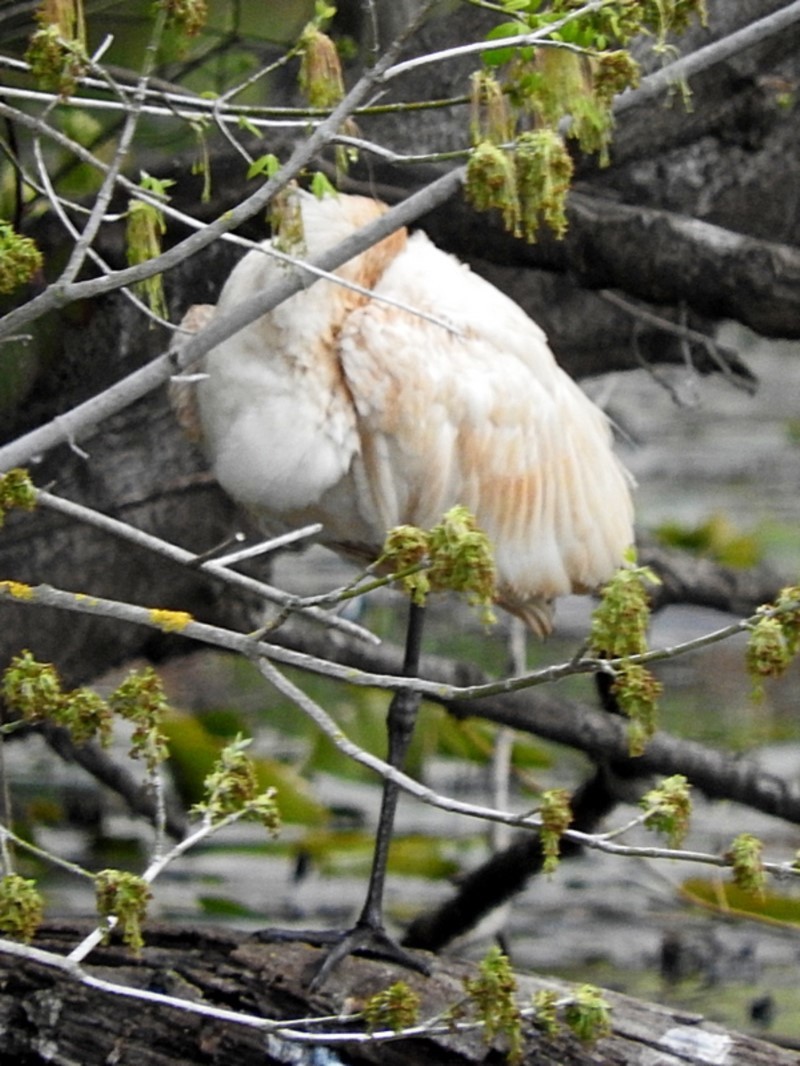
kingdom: Animalia
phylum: Chordata
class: Aves
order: Pelecaniformes
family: Threskiornithidae
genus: Platalea
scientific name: Platalea regia
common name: Royal spoonbill
